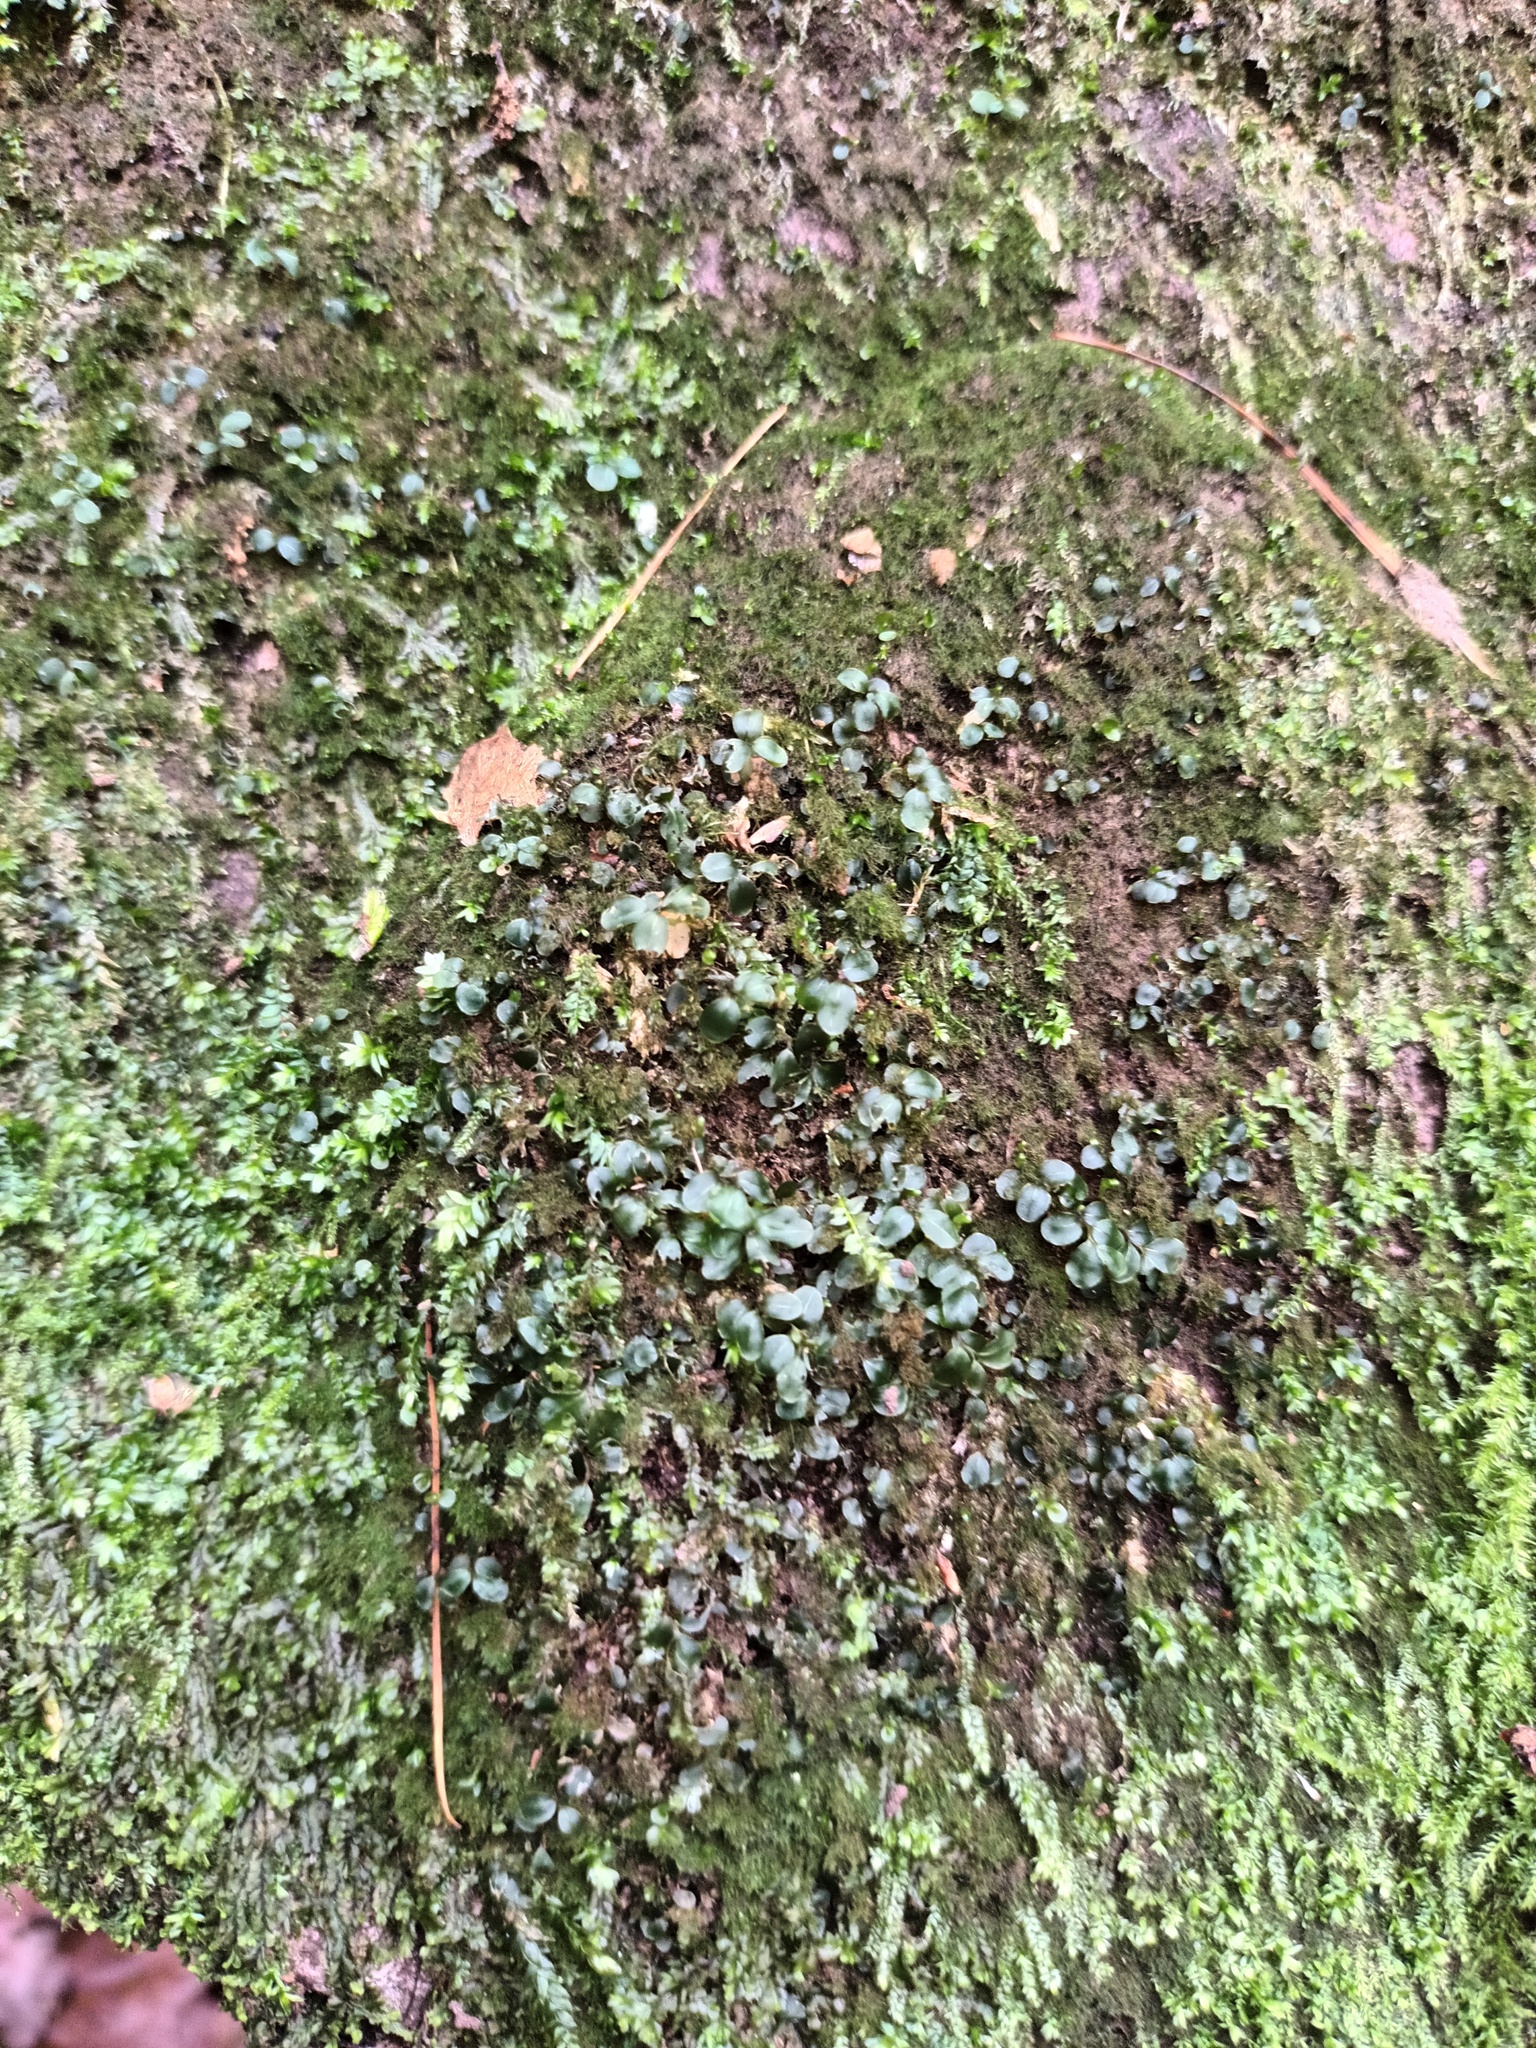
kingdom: Plantae
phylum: Bryophyta
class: Bryopsida
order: Bryales
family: Mniaceae
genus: Rhizomnium
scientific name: Rhizomnium punctatum
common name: Dotted leafy moss
